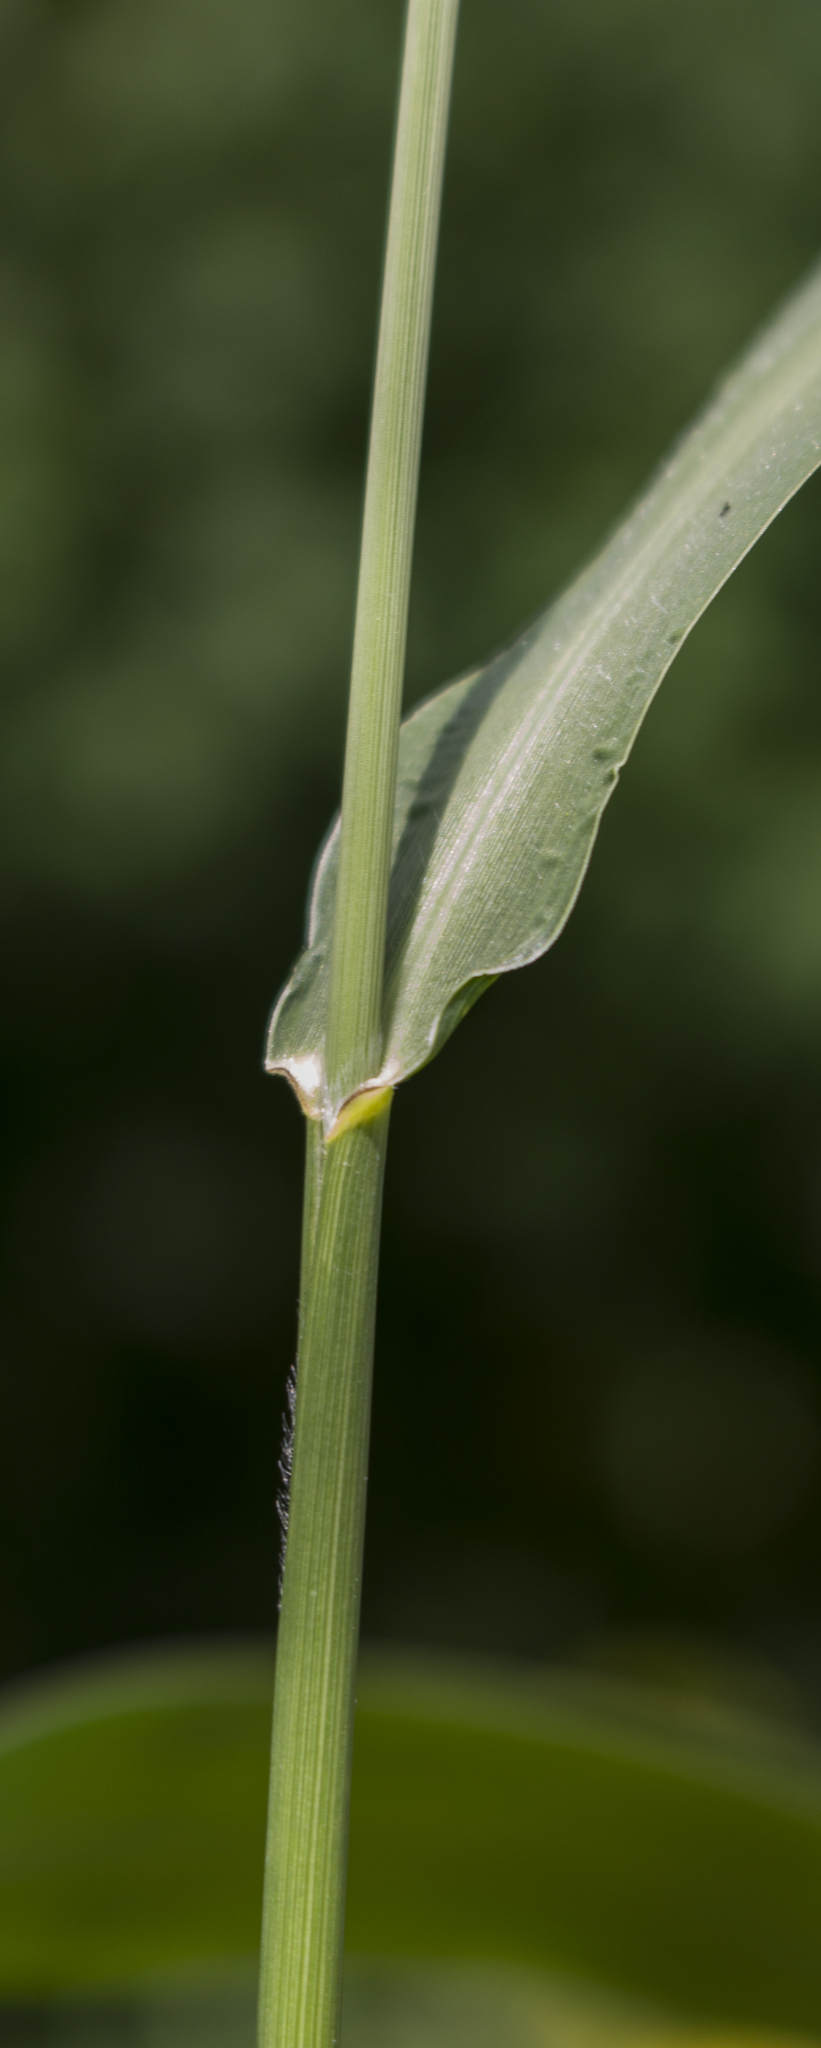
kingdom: Plantae
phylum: Tracheophyta
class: Liliopsida
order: Poales
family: Poaceae
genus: Setaria
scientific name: Setaria faberi
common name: Nodding bristle-grass
